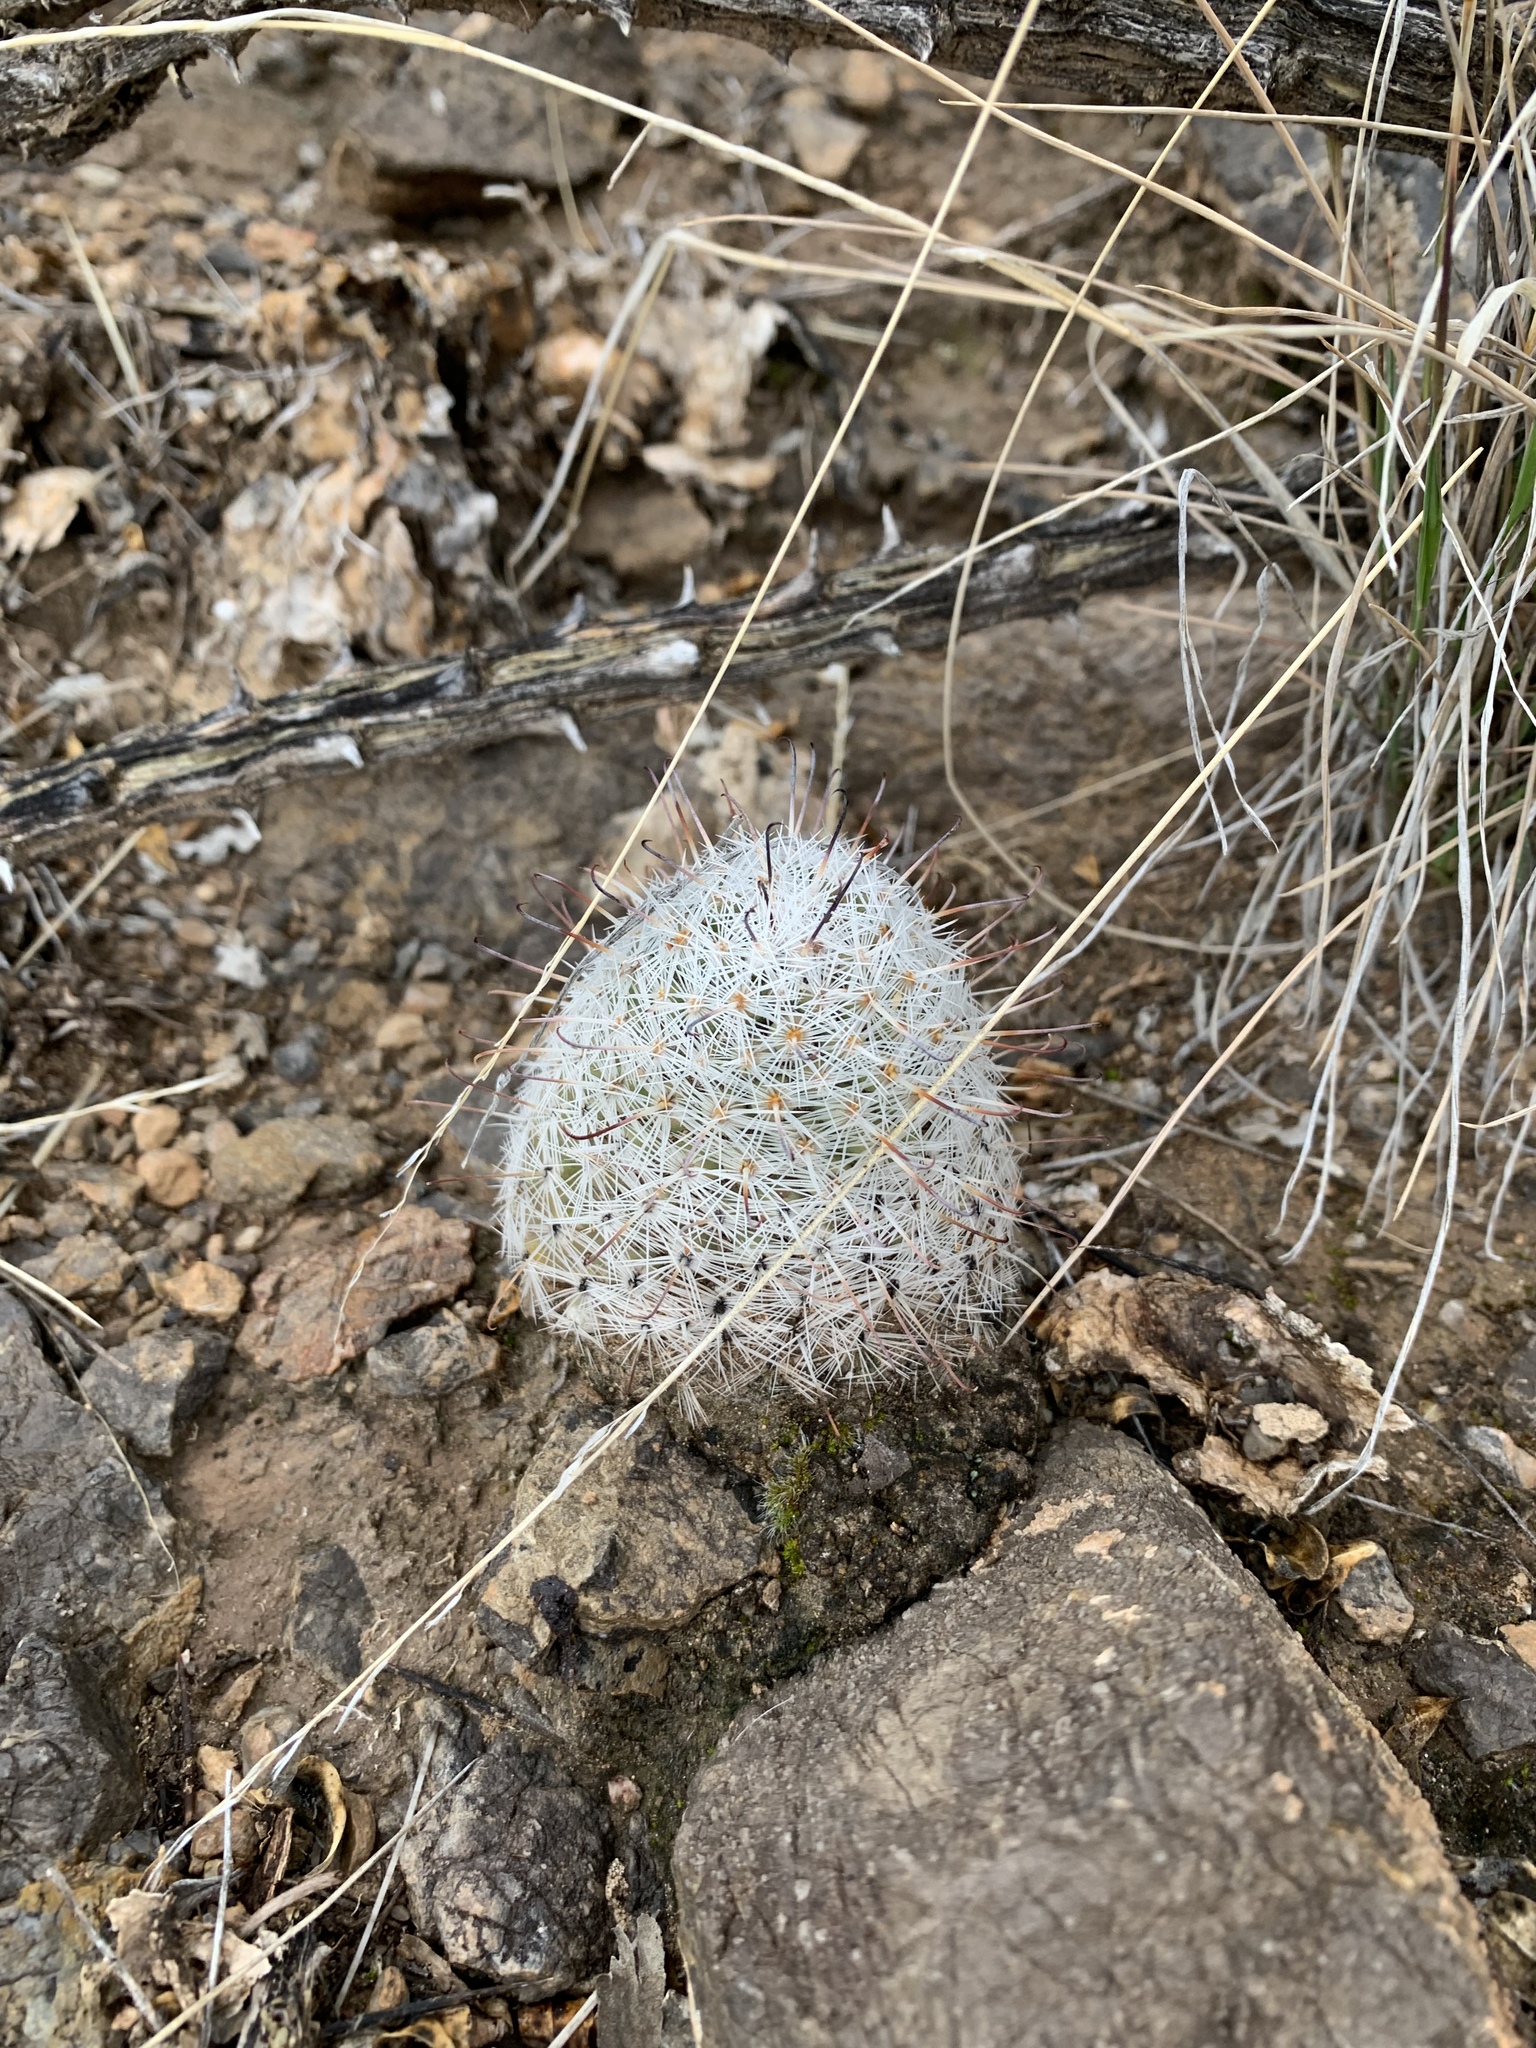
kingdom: Plantae
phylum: Tracheophyta
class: Magnoliopsida
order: Caryophyllales
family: Cactaceae
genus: Cochemiea
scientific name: Cochemiea grahamii
